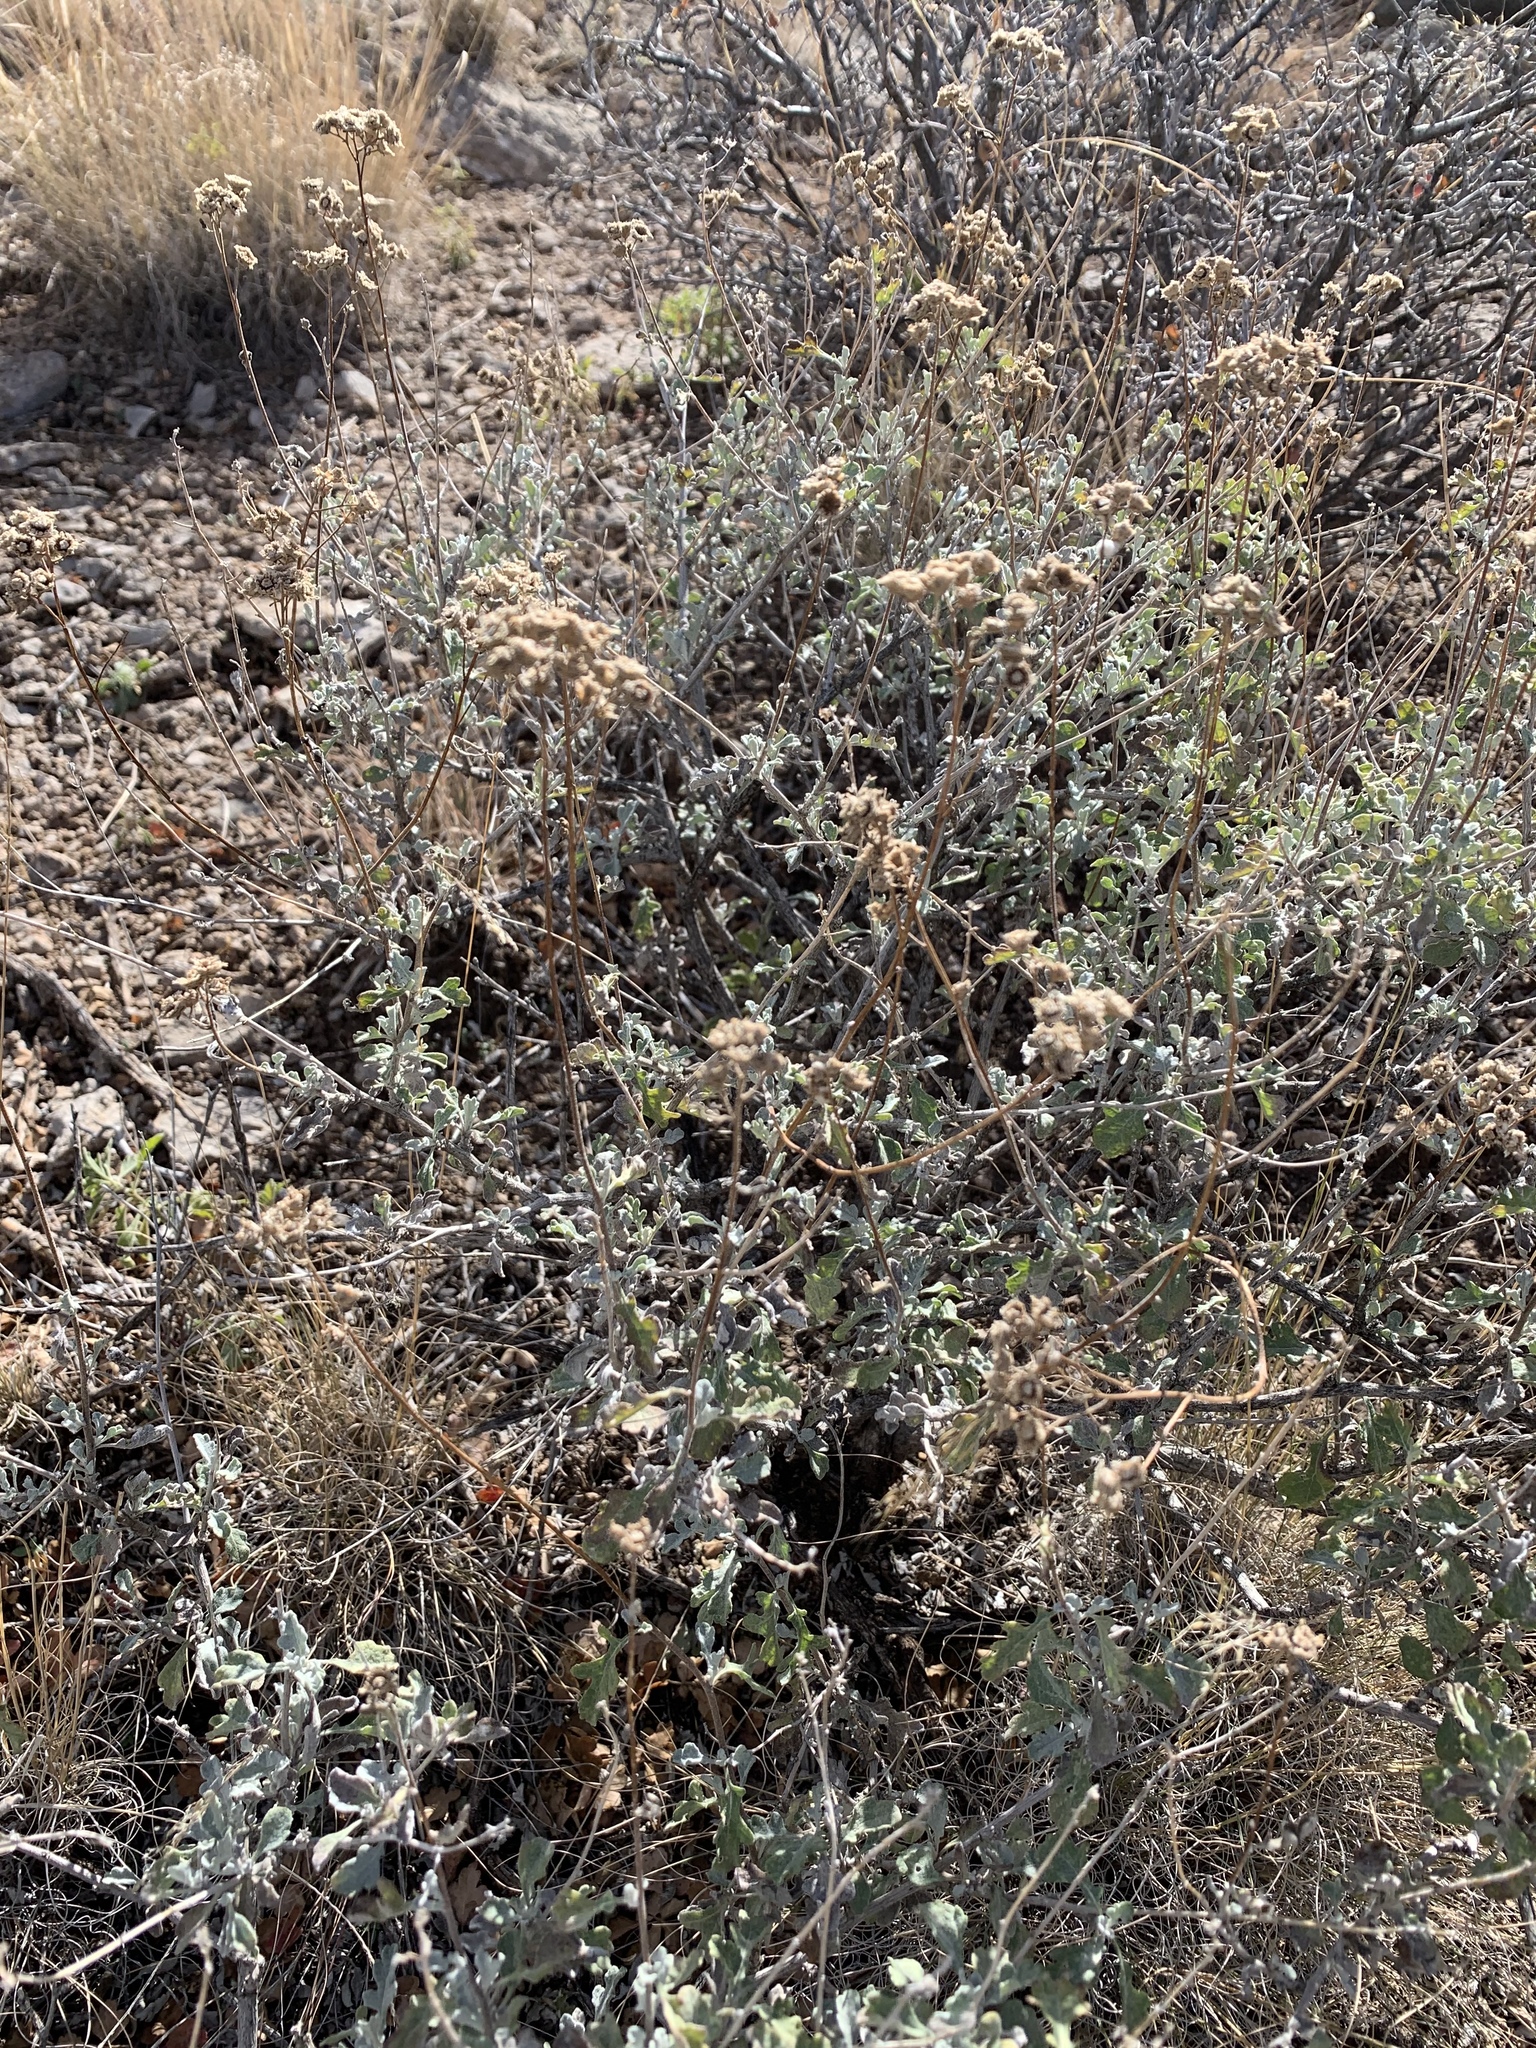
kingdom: Plantae
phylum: Tracheophyta
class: Magnoliopsida
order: Asterales
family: Asteraceae
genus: Parthenium
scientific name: Parthenium incanum
